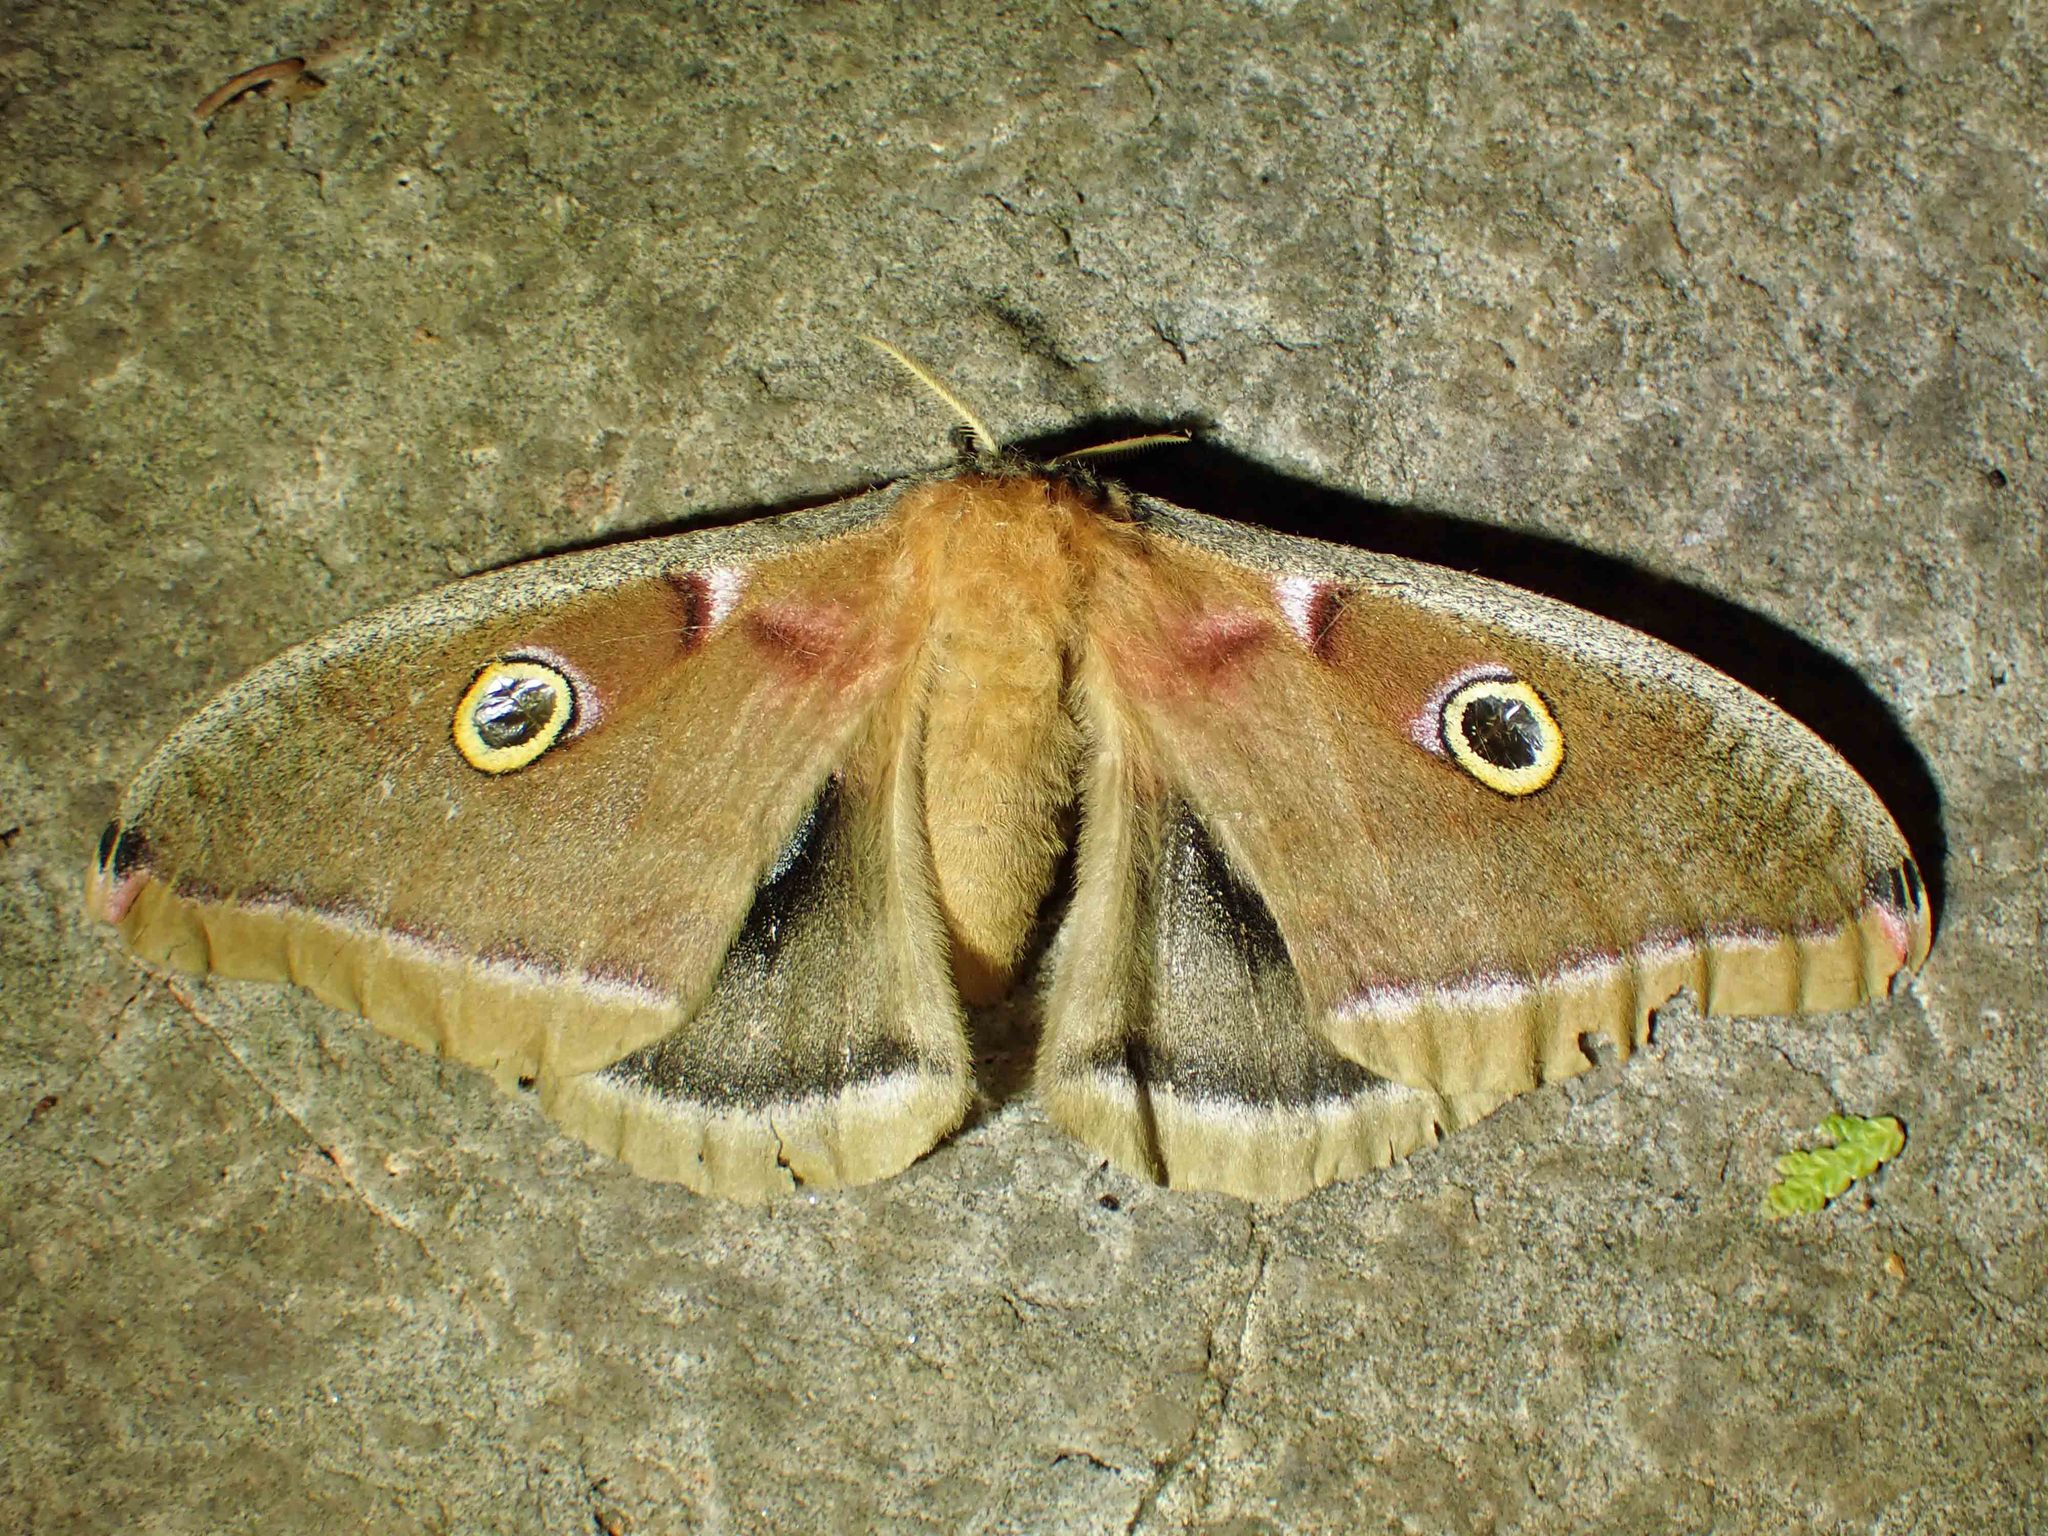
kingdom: Animalia
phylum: Arthropoda
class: Insecta
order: Lepidoptera
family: Saturniidae
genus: Antheraea
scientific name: Antheraea polyphemus
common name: Polyphemus moth
